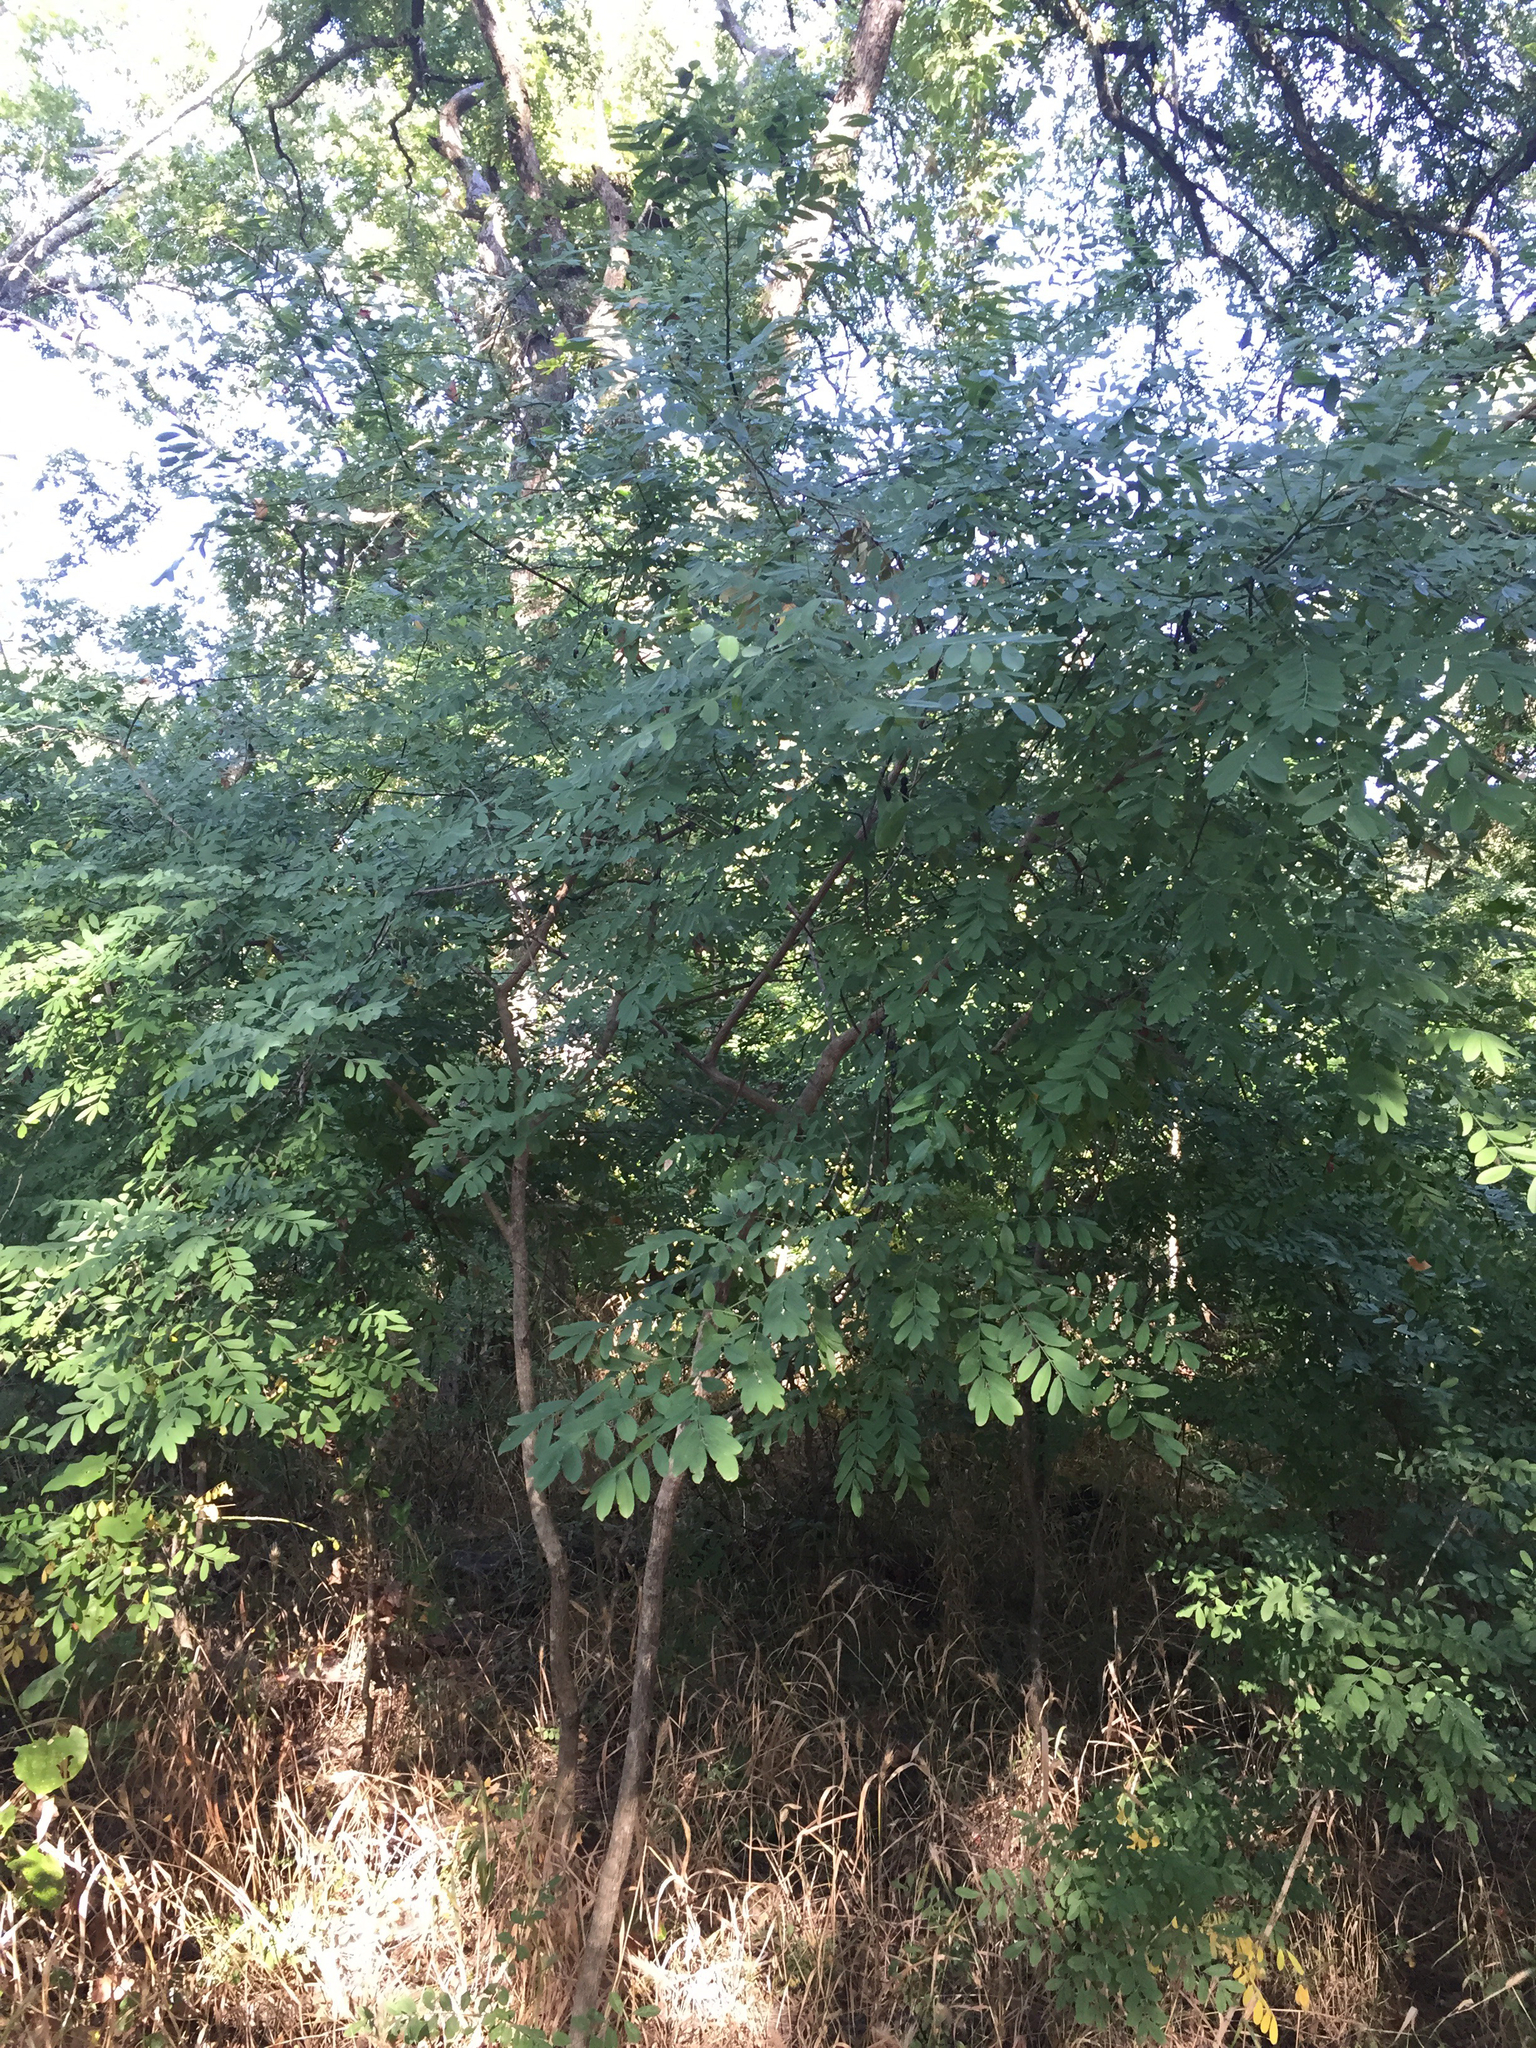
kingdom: Plantae
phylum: Tracheophyta
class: Magnoliopsida
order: Fabales
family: Fabaceae
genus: Styphnolobium
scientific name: Styphnolobium affine
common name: Texas sophora
